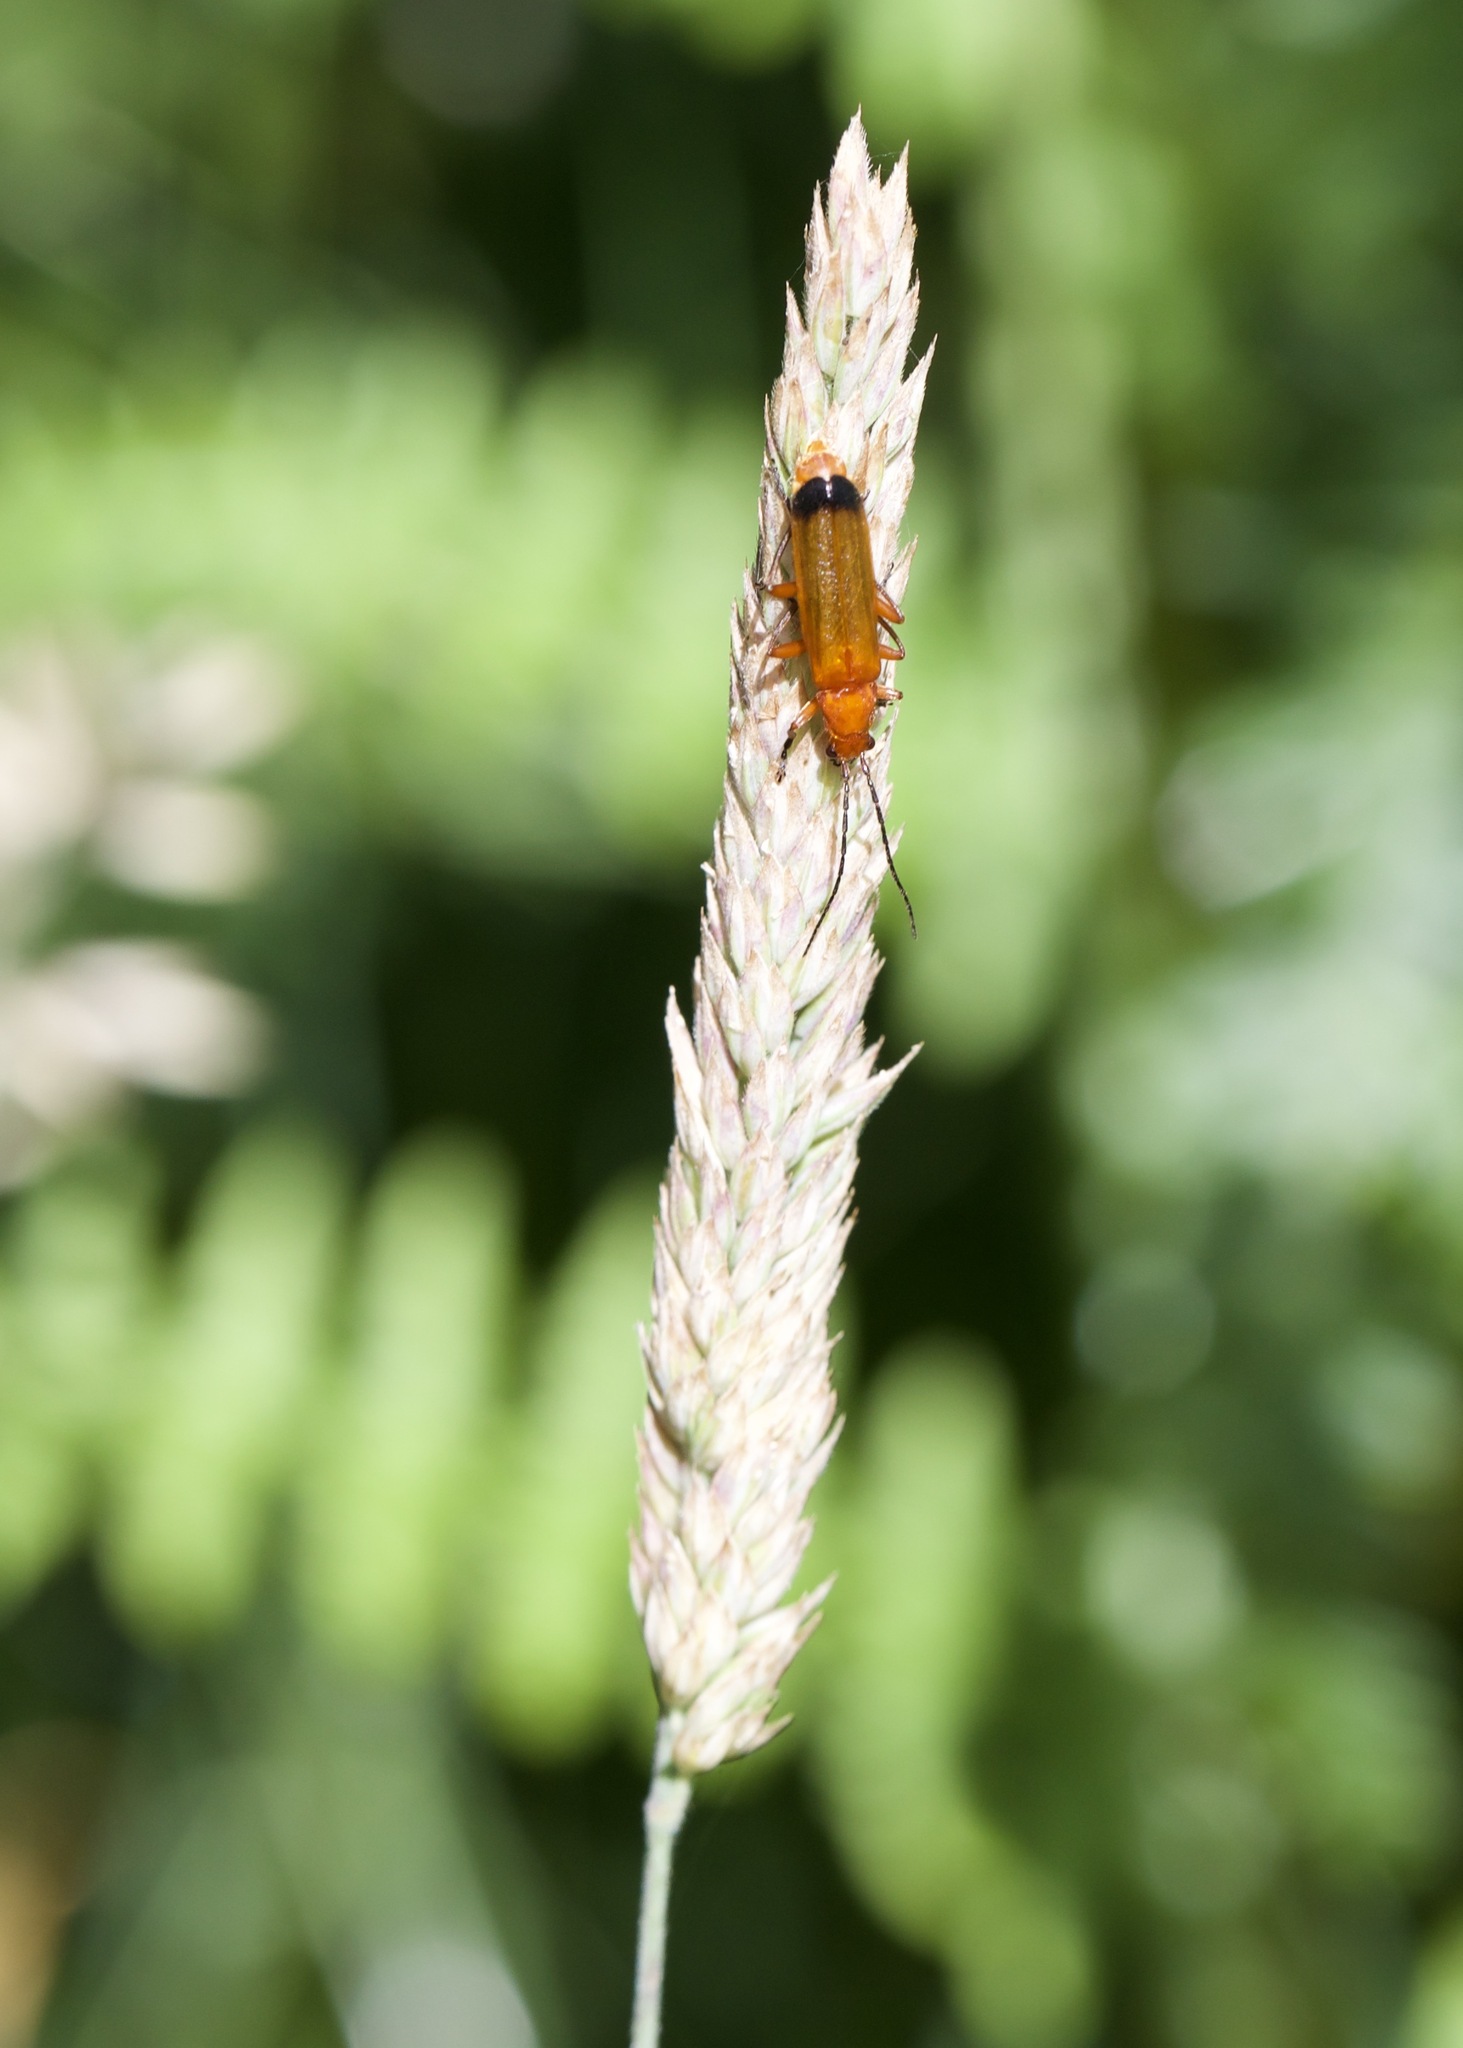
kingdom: Animalia
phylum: Arthropoda
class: Insecta
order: Coleoptera
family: Cantharidae
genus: Rhagonycha
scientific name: Rhagonycha fulva
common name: Common red soldier beetle
